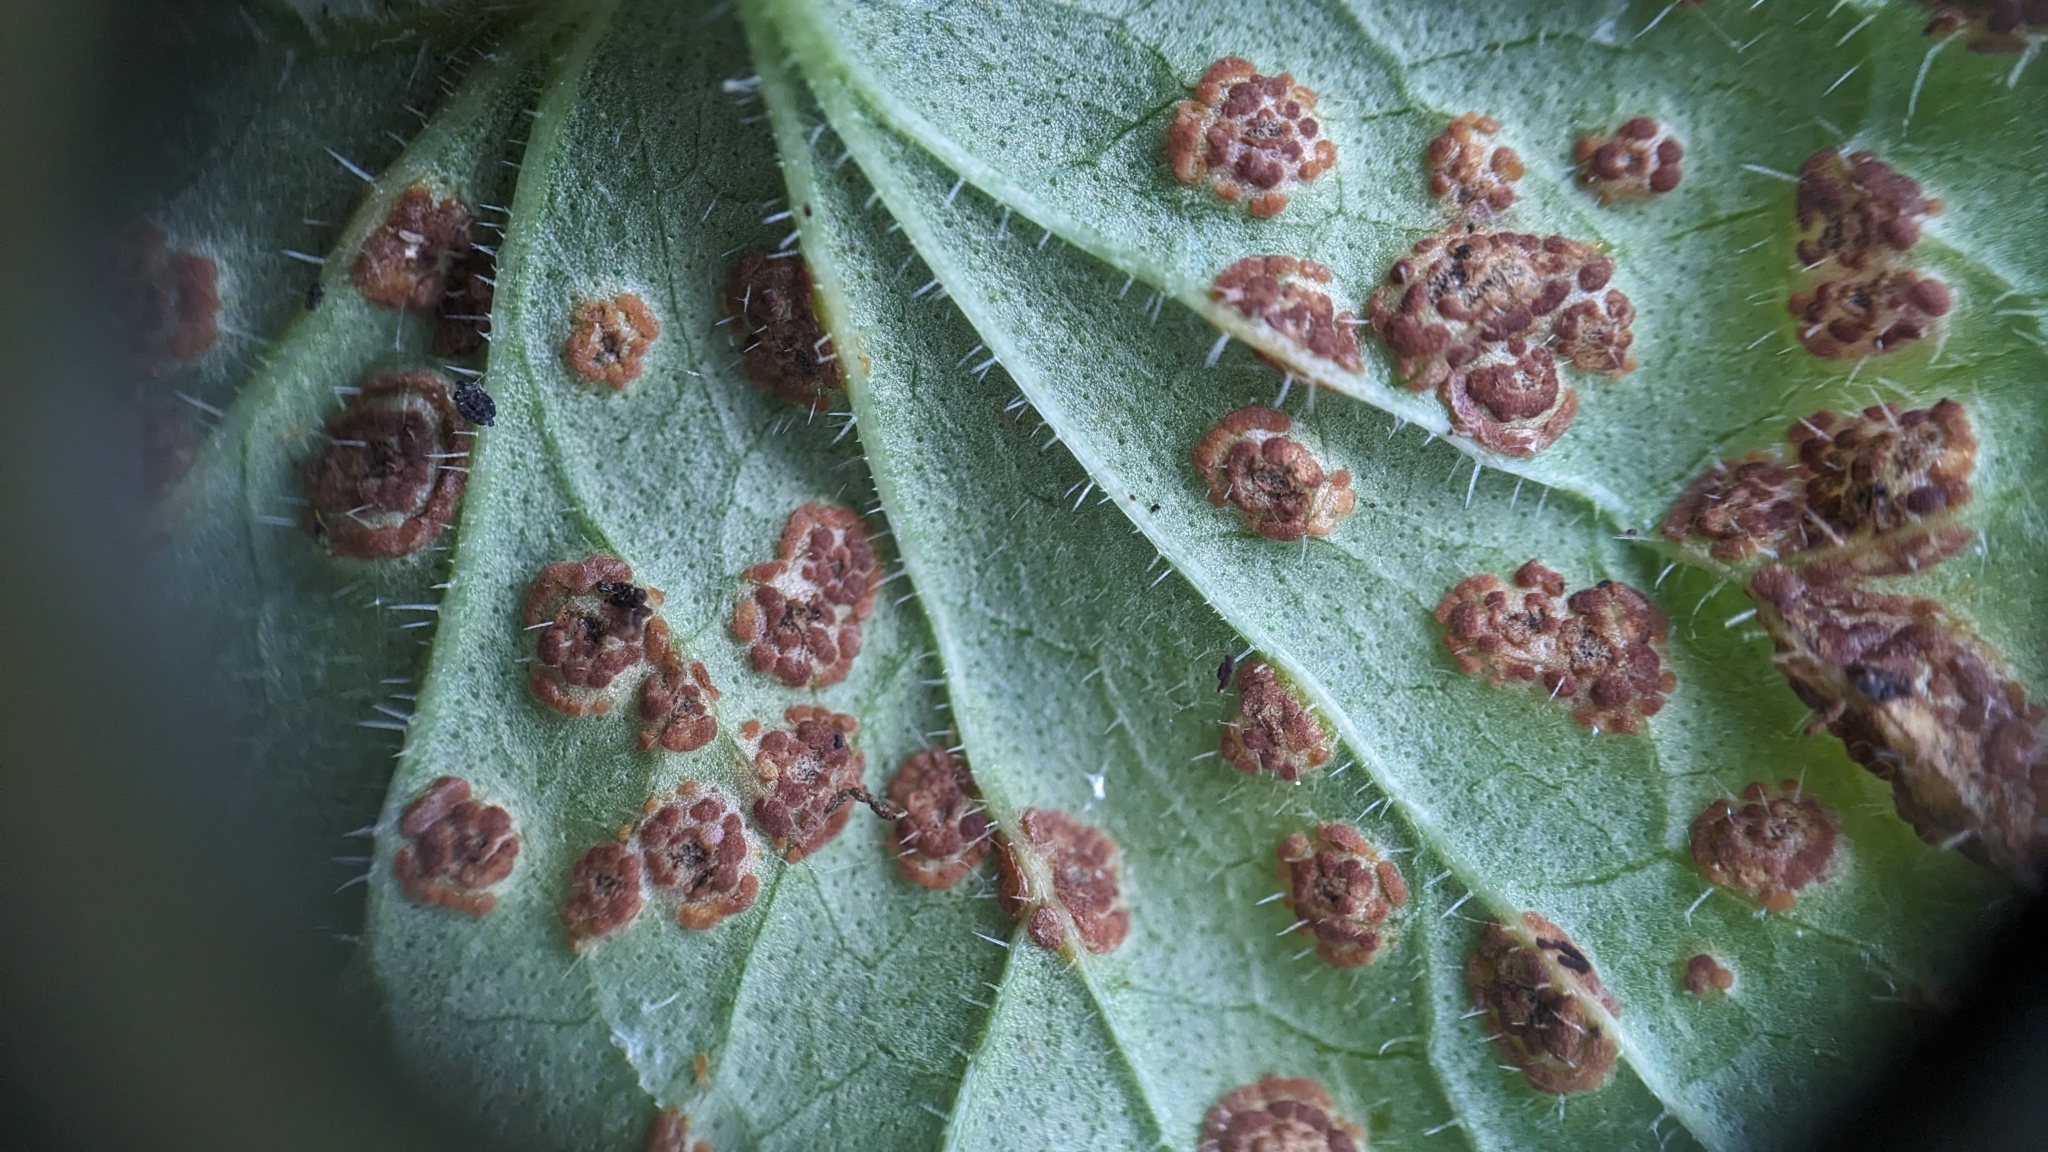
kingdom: Fungi
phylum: Basidiomycota
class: Pucciniomycetes
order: Pucciniales
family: Pucciniaceae
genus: Puccinia
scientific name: Puccinia glechomatis
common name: Ground ivy rust
